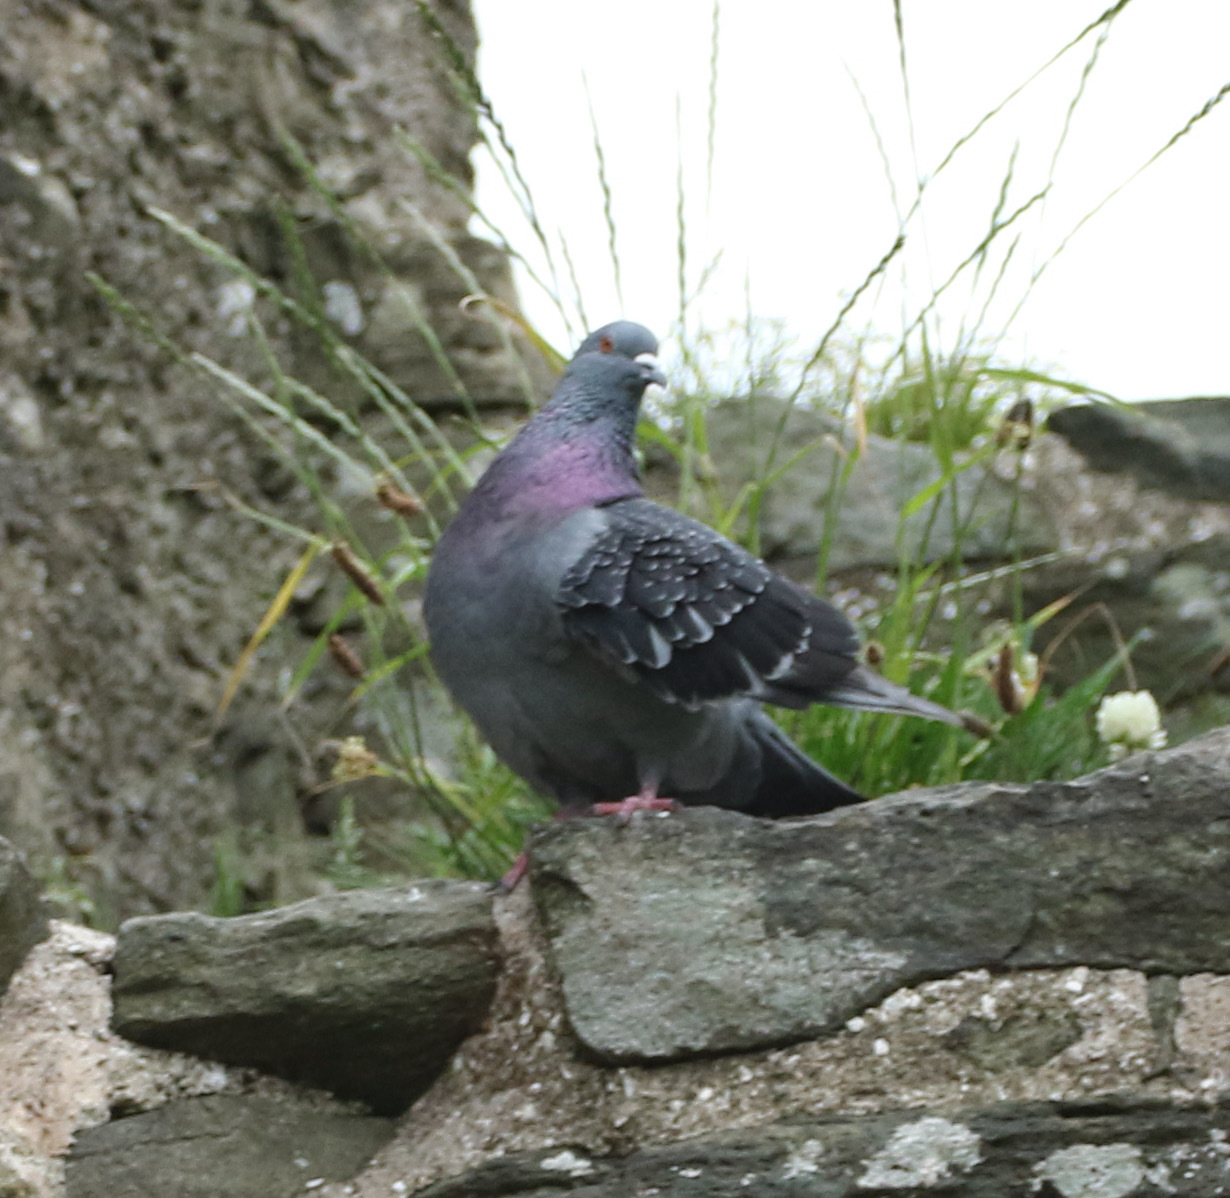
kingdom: Animalia
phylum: Chordata
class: Aves
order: Columbiformes
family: Columbidae
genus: Columba
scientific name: Columba livia
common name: Rock pigeon
